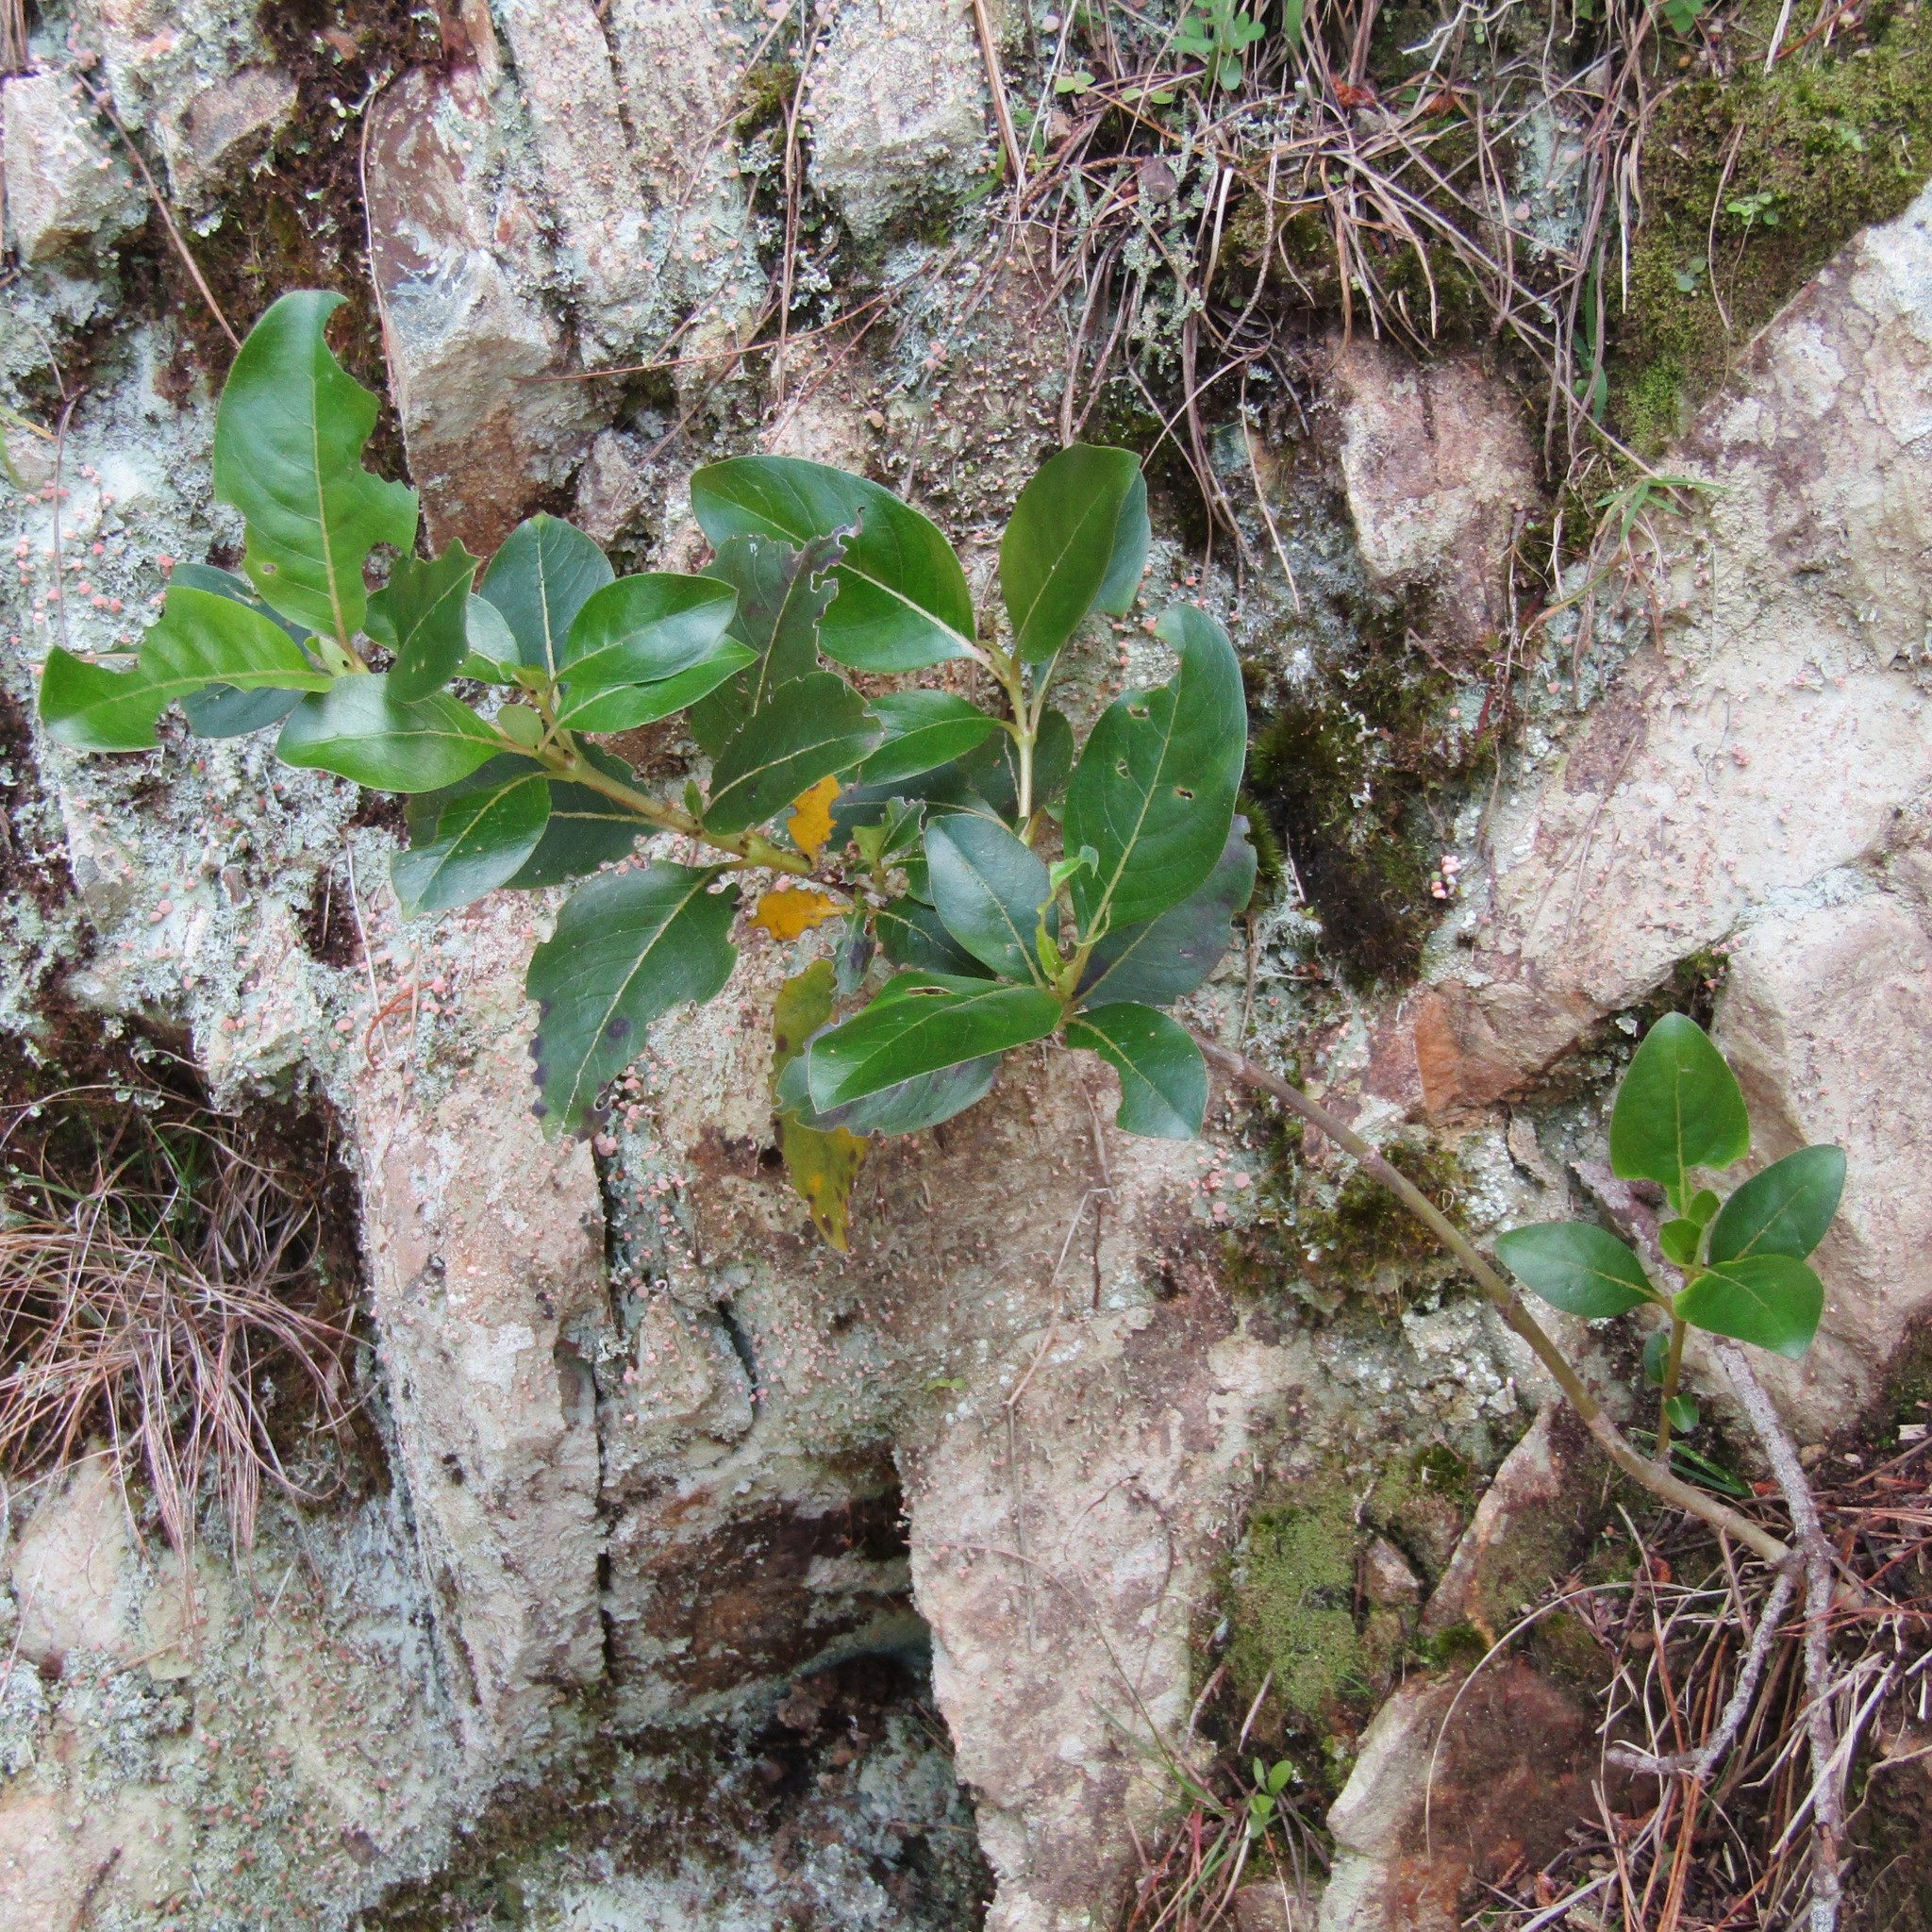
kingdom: Plantae
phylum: Tracheophyta
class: Magnoliopsida
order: Gentianales
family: Rubiaceae
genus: Coprosma
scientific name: Coprosma robusta
